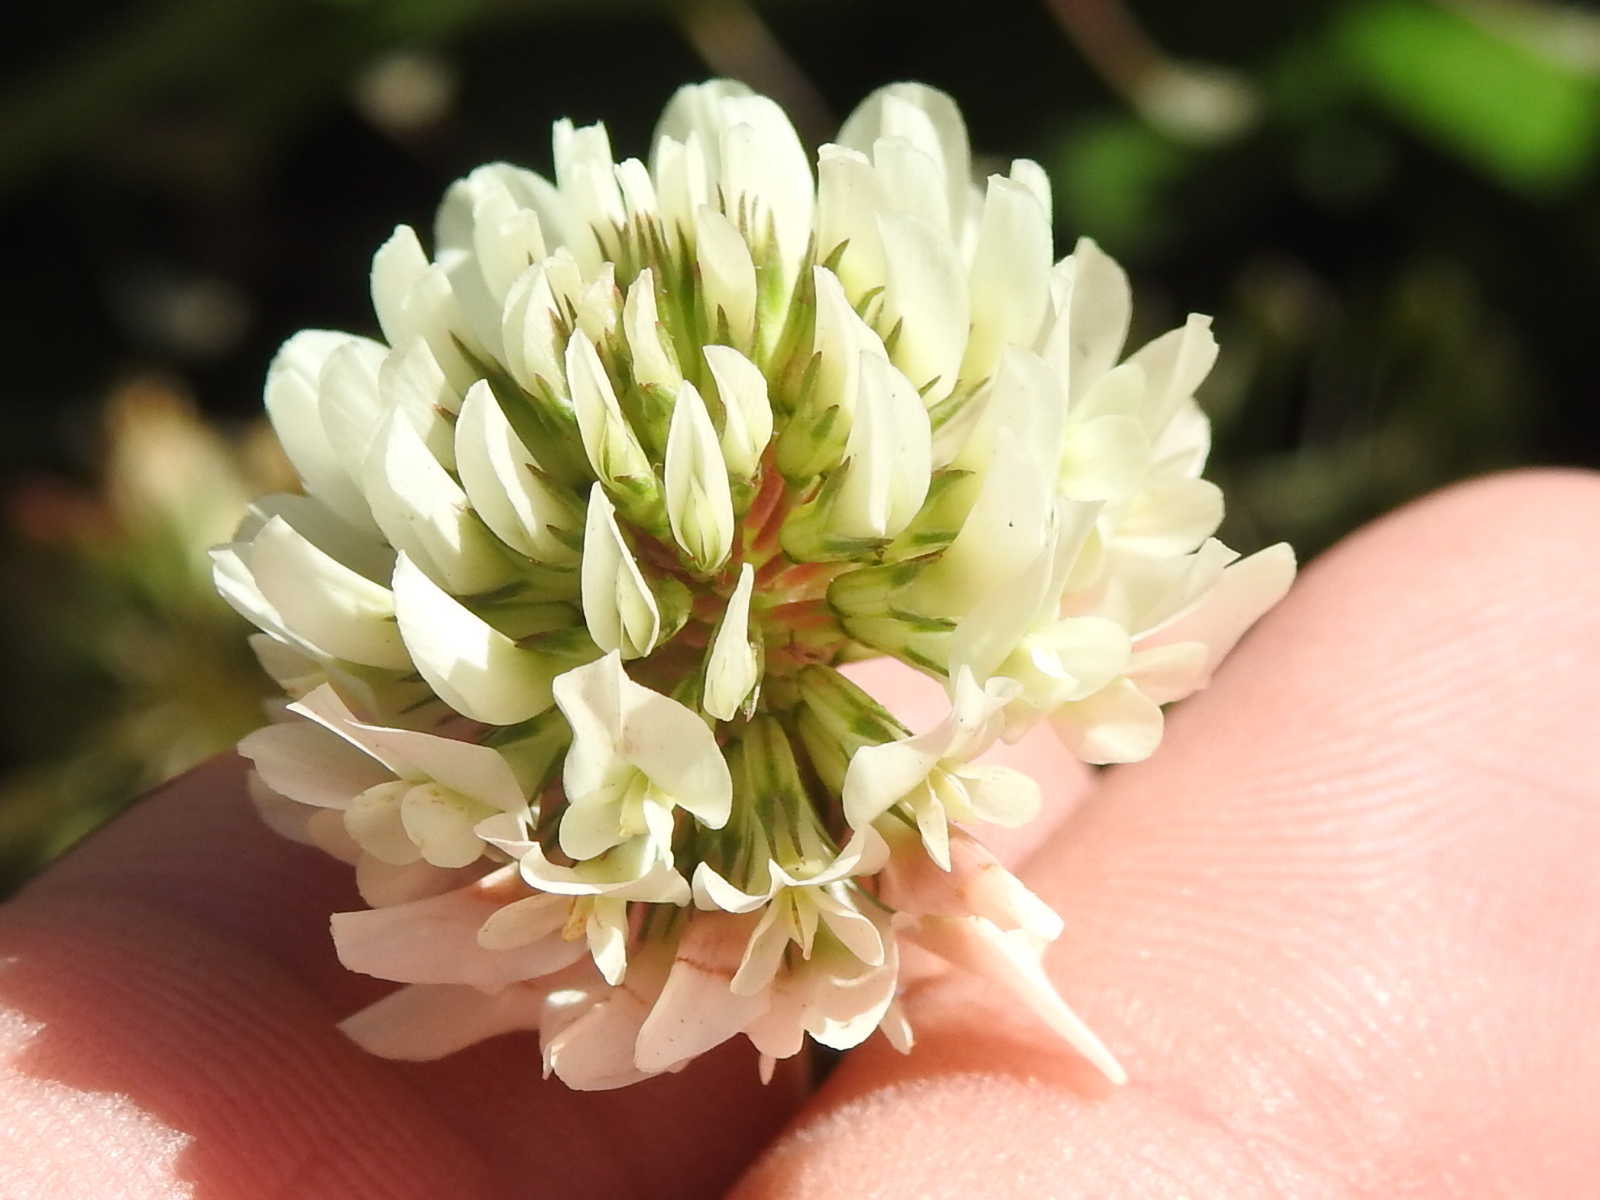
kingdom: Plantae
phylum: Tracheophyta
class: Magnoliopsida
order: Fabales
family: Fabaceae
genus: Trifolium
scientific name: Trifolium repens
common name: White clover
